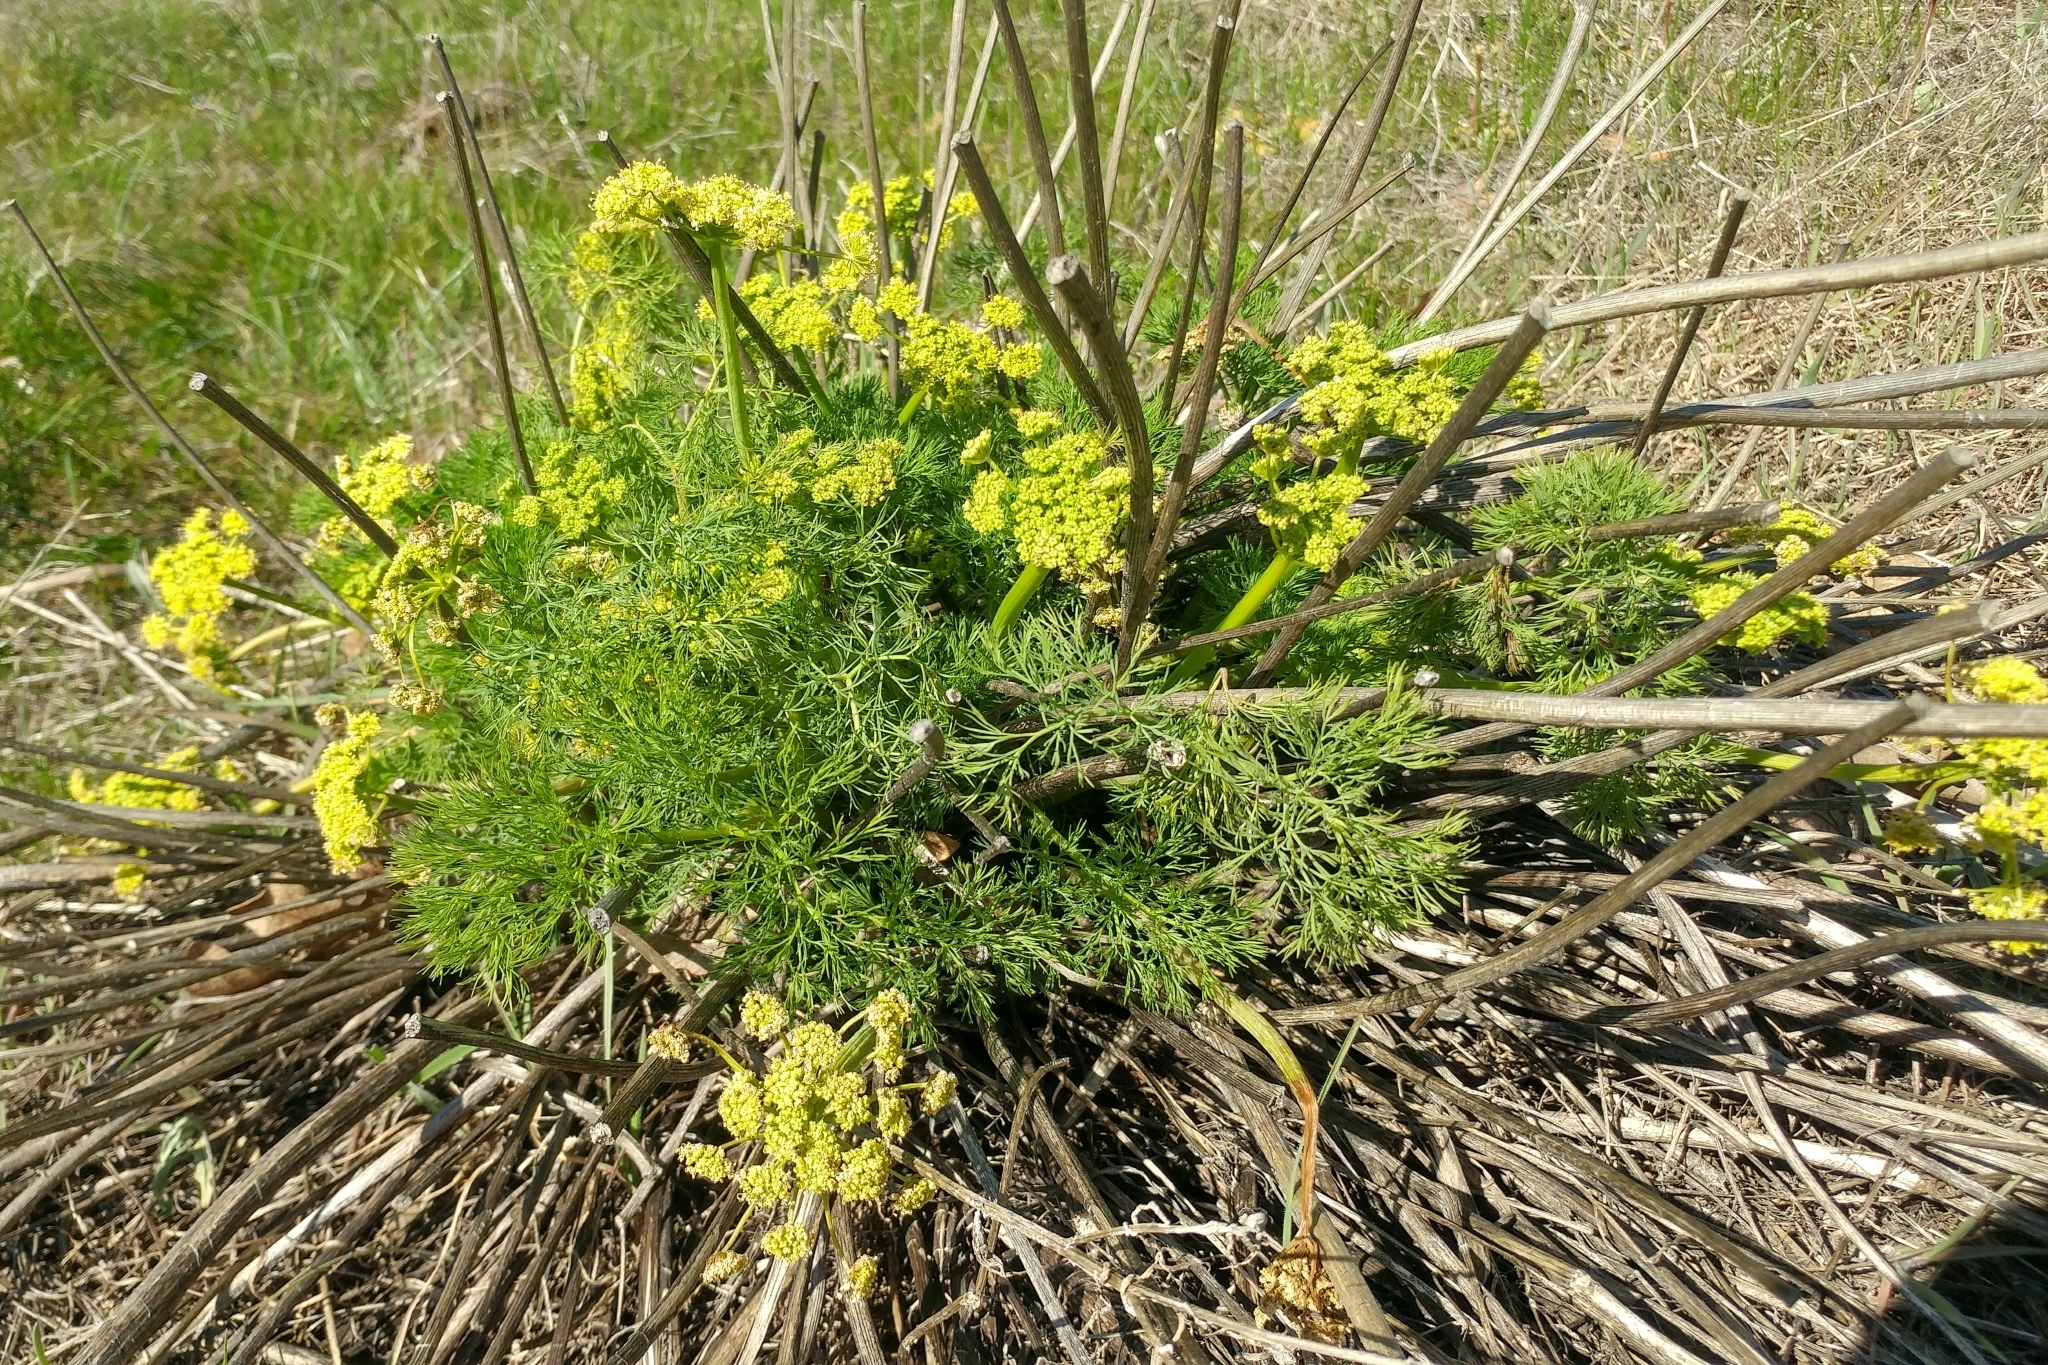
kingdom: Plantae
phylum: Tracheophyta
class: Magnoliopsida
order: Apiales
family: Apiaceae
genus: Lomatium
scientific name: Lomatium klickitatense
